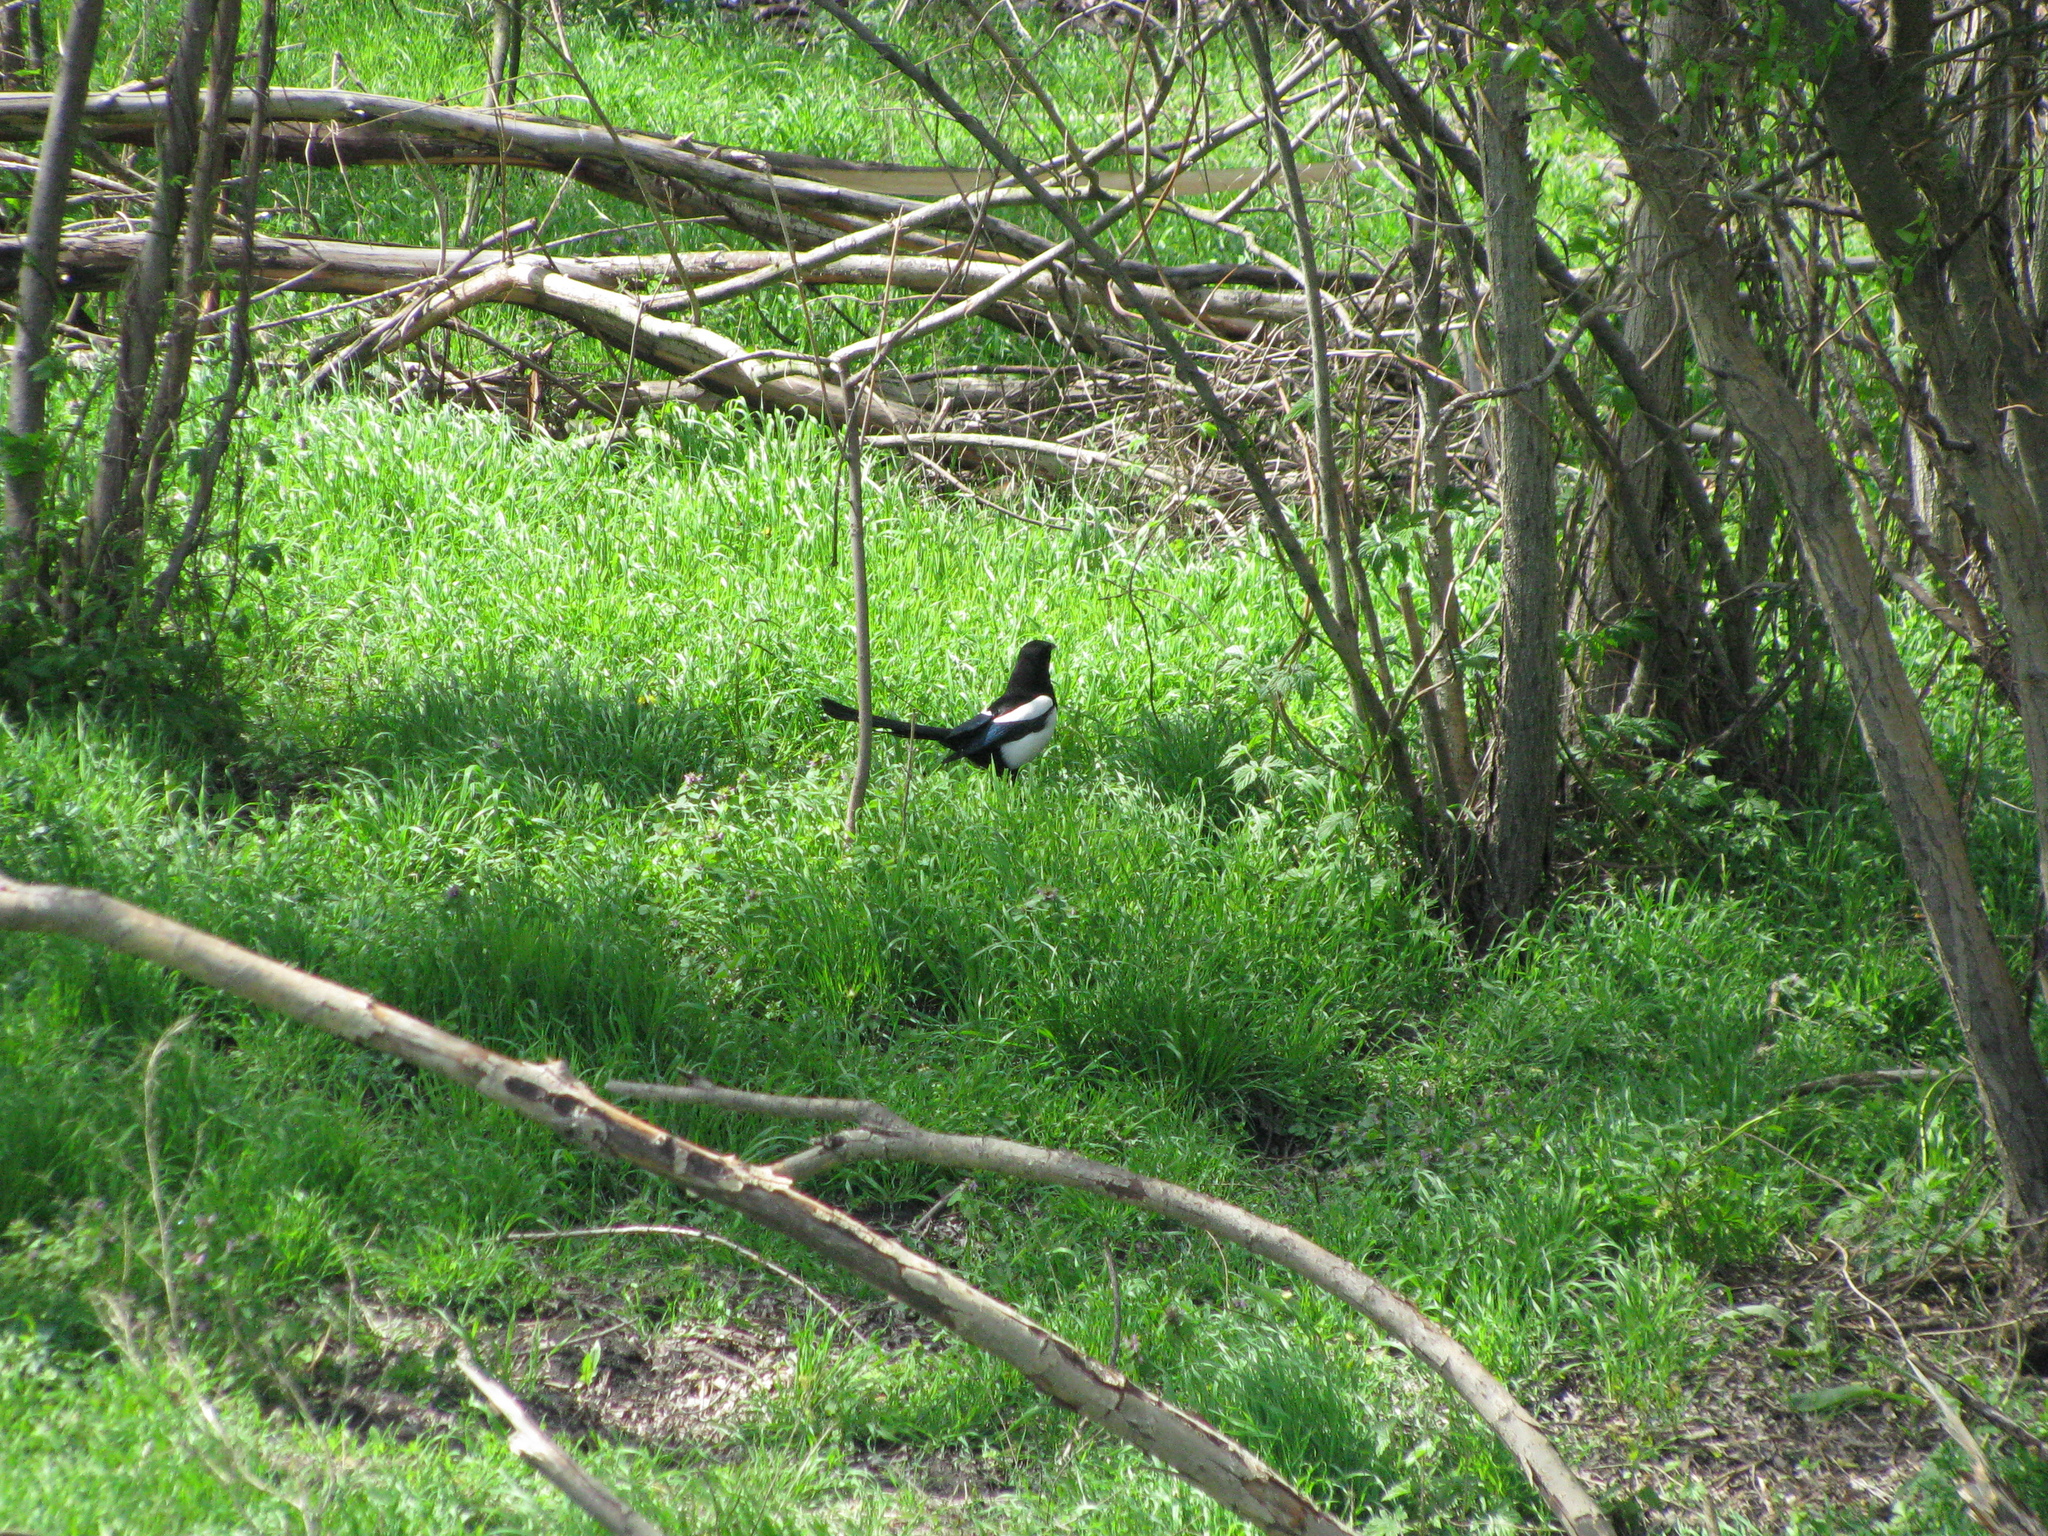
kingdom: Animalia
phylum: Chordata
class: Aves
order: Passeriformes
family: Corvidae
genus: Pica
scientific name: Pica pica
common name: Eurasian magpie
